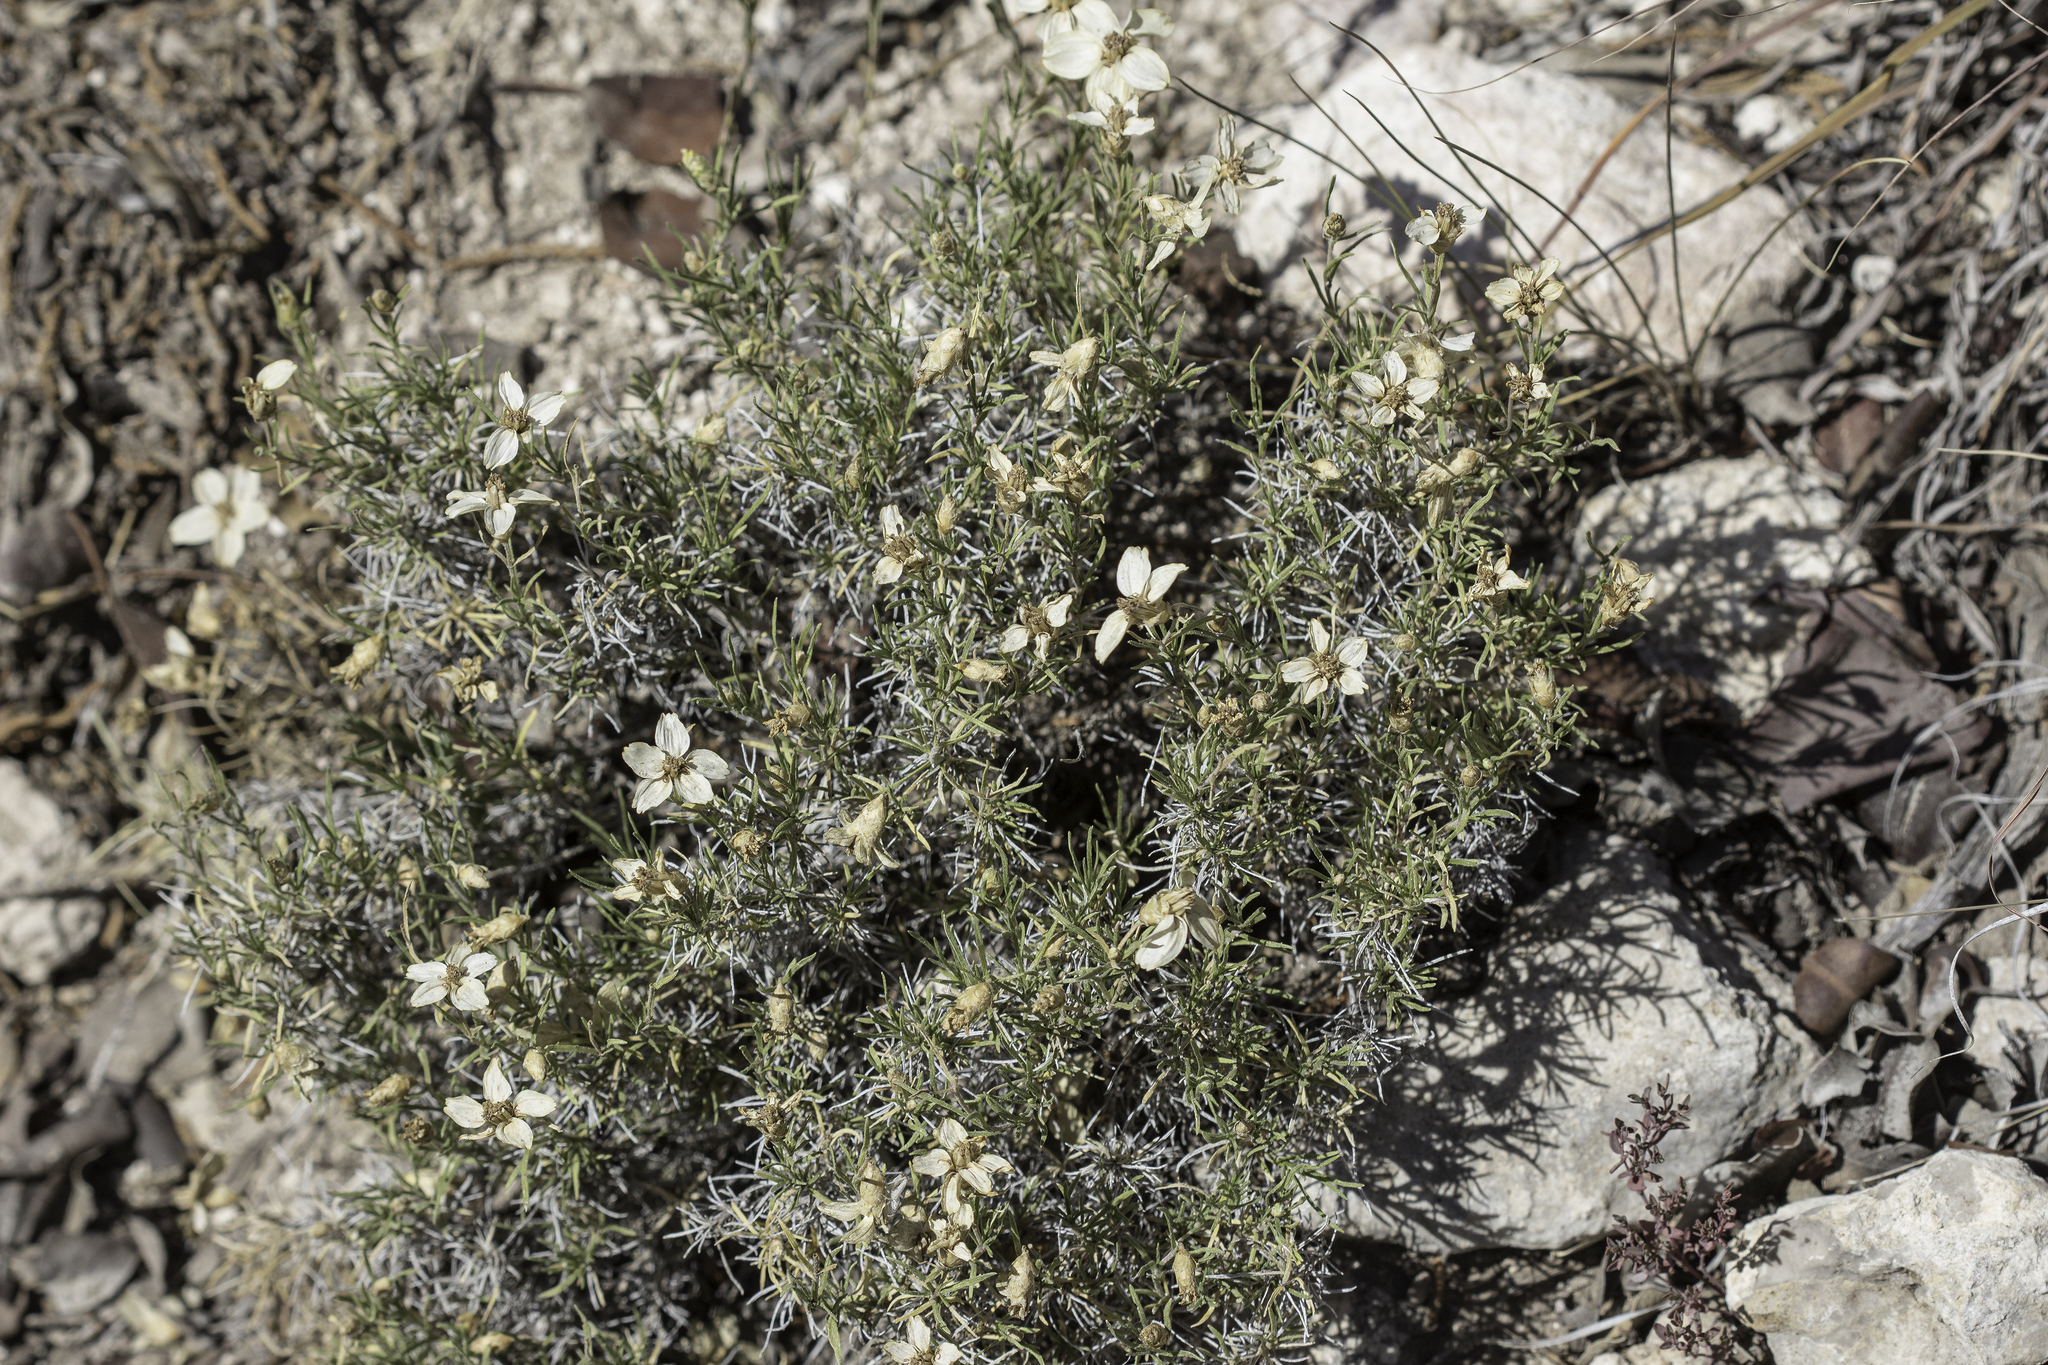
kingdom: Plantae
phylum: Tracheophyta
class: Magnoliopsida
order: Asterales
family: Asteraceae
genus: Zinnia
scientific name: Zinnia acerosa
